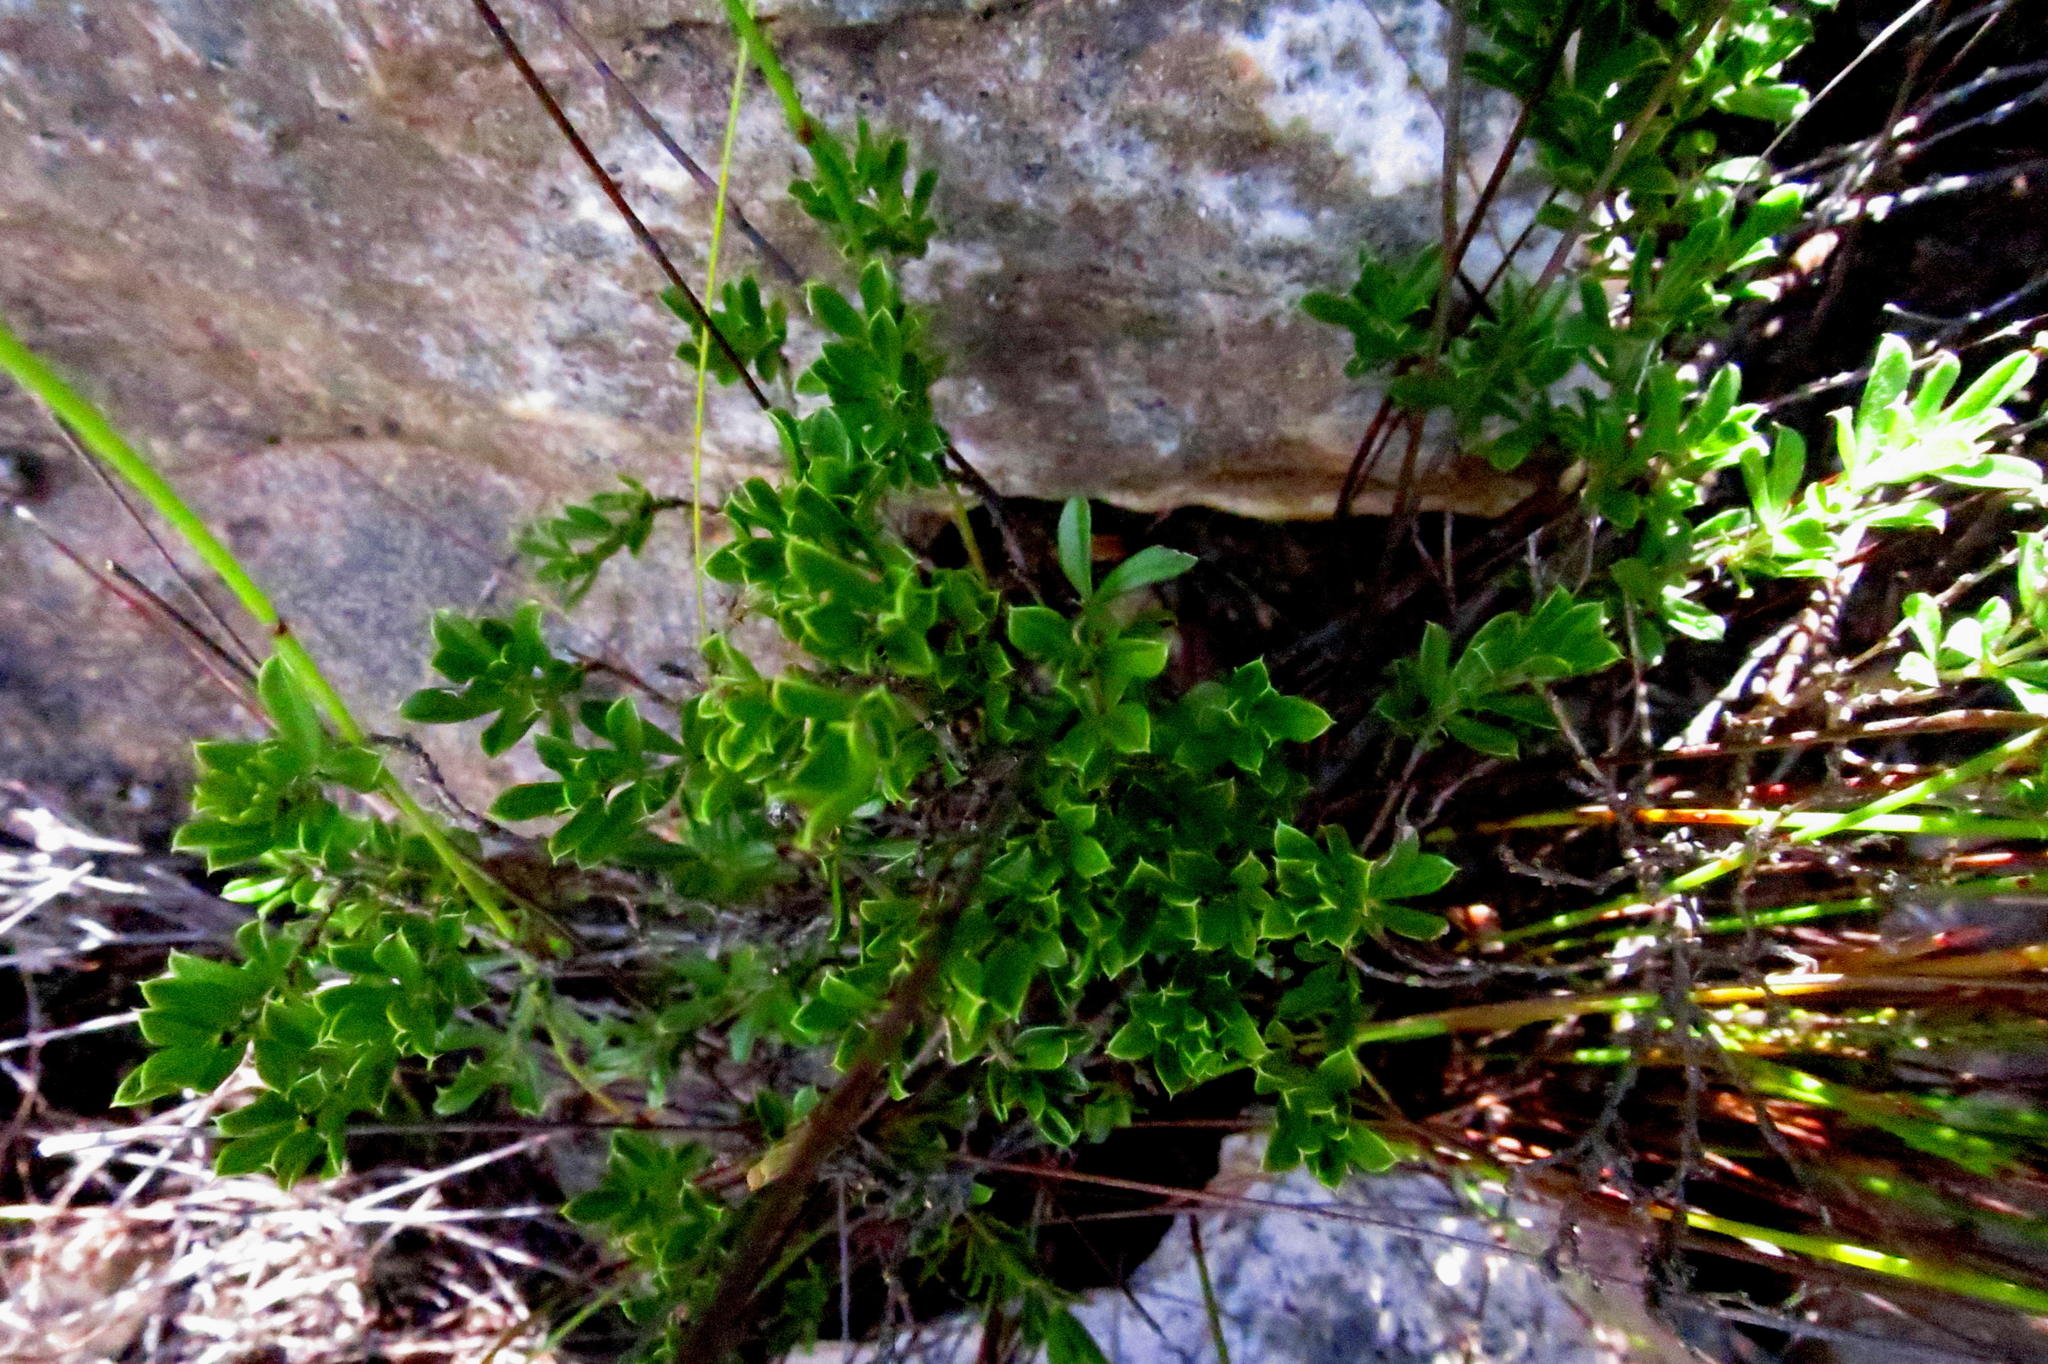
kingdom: Plantae
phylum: Tracheophyta
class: Magnoliopsida
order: Fabales
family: Fabaceae
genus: Psoralea
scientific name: Psoralea heterosepala
